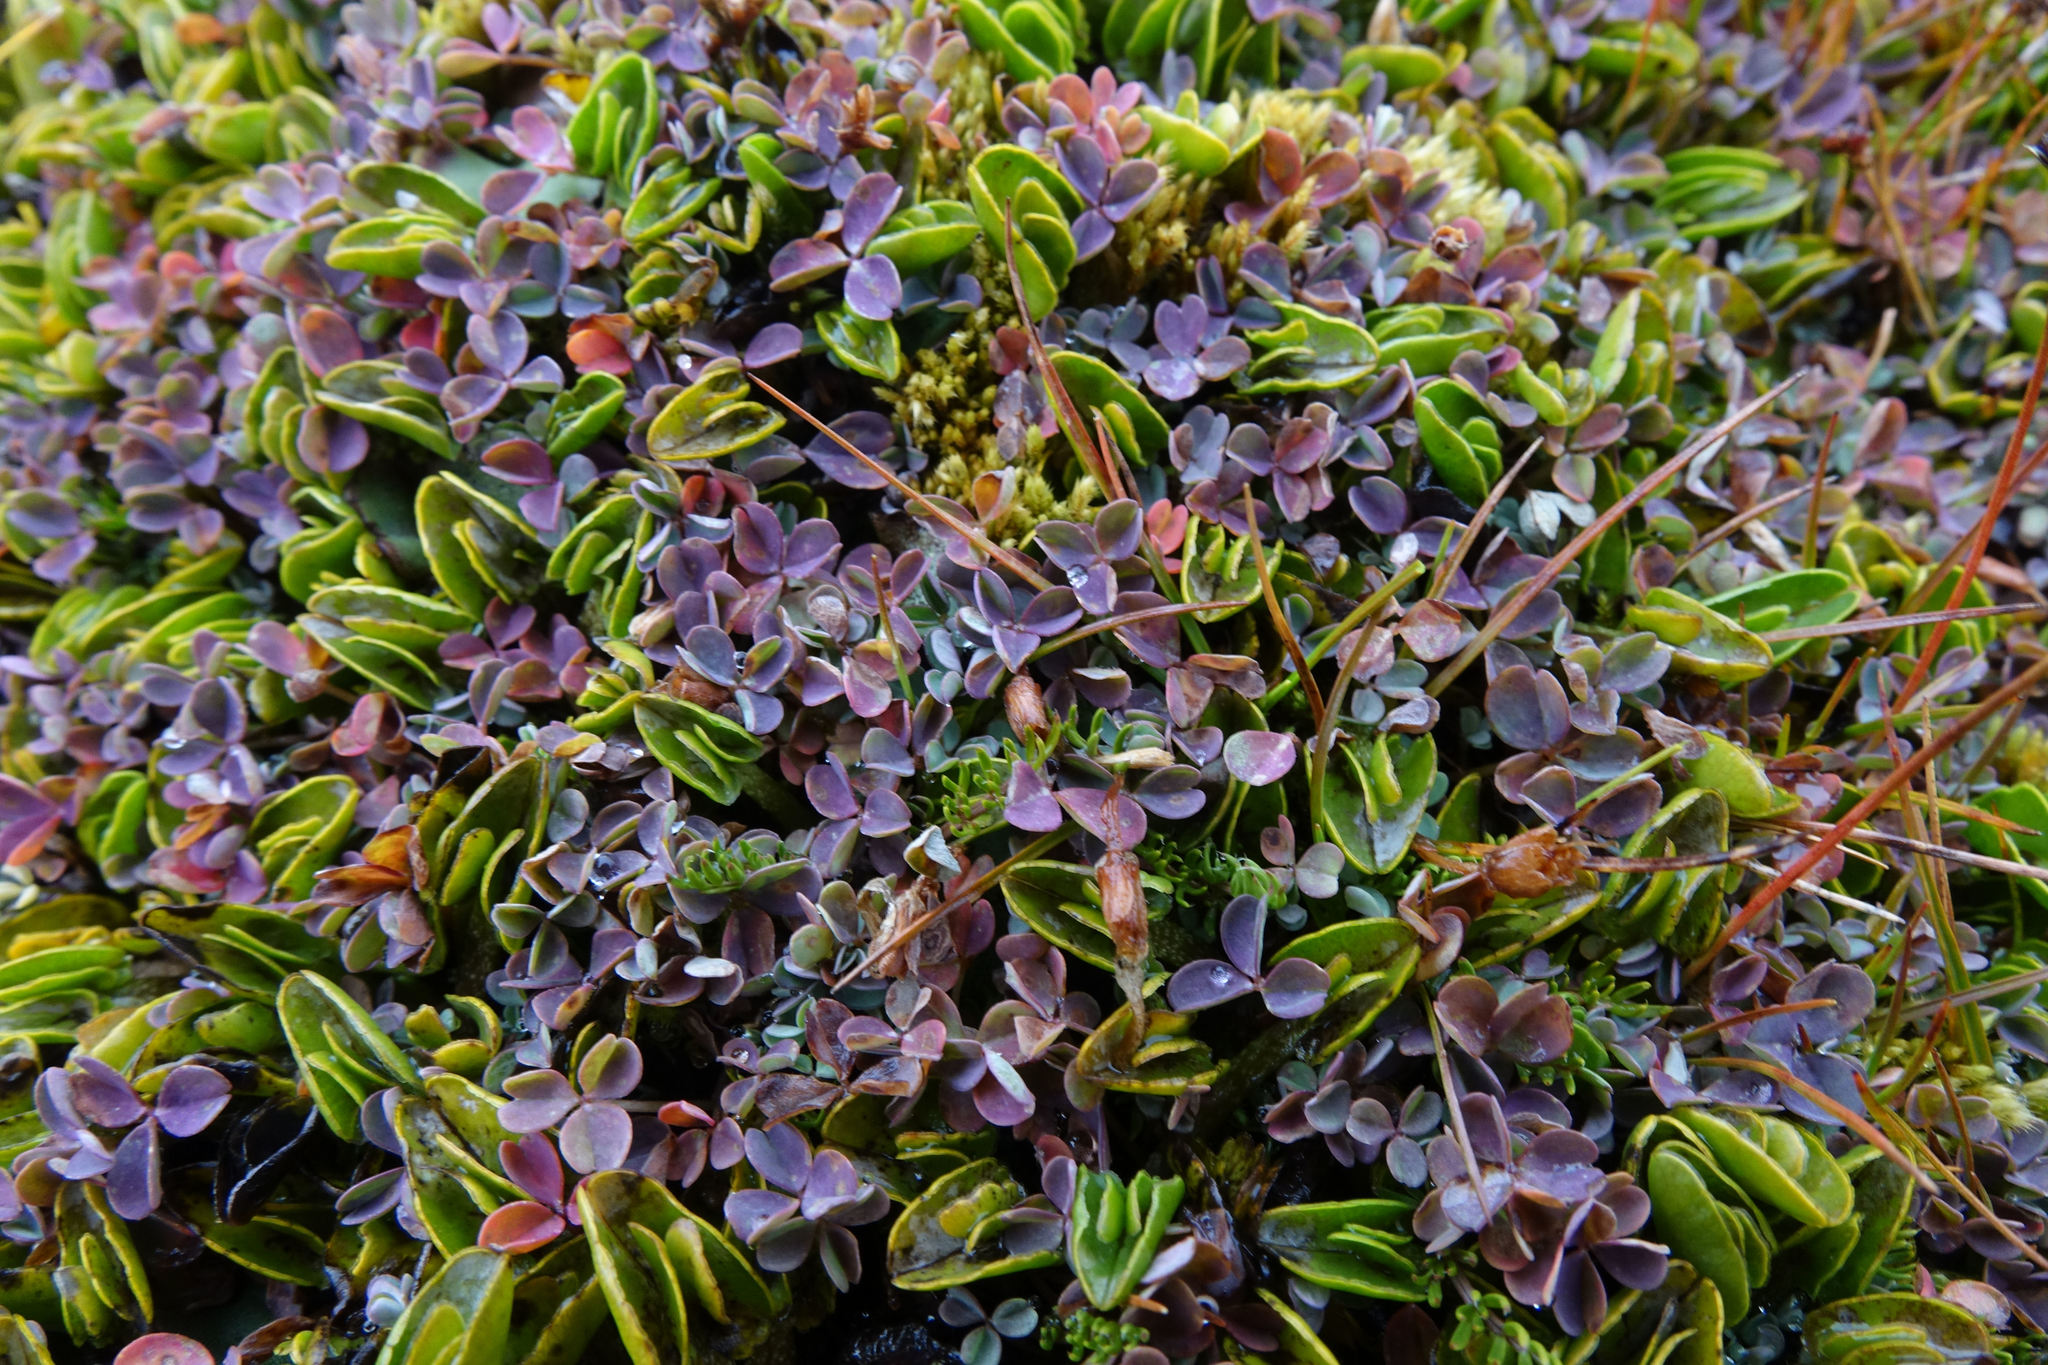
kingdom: Plantae
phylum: Tracheophyta
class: Magnoliopsida
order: Oxalidales
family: Oxalidaceae
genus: Oxalis
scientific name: Oxalis magellanica
